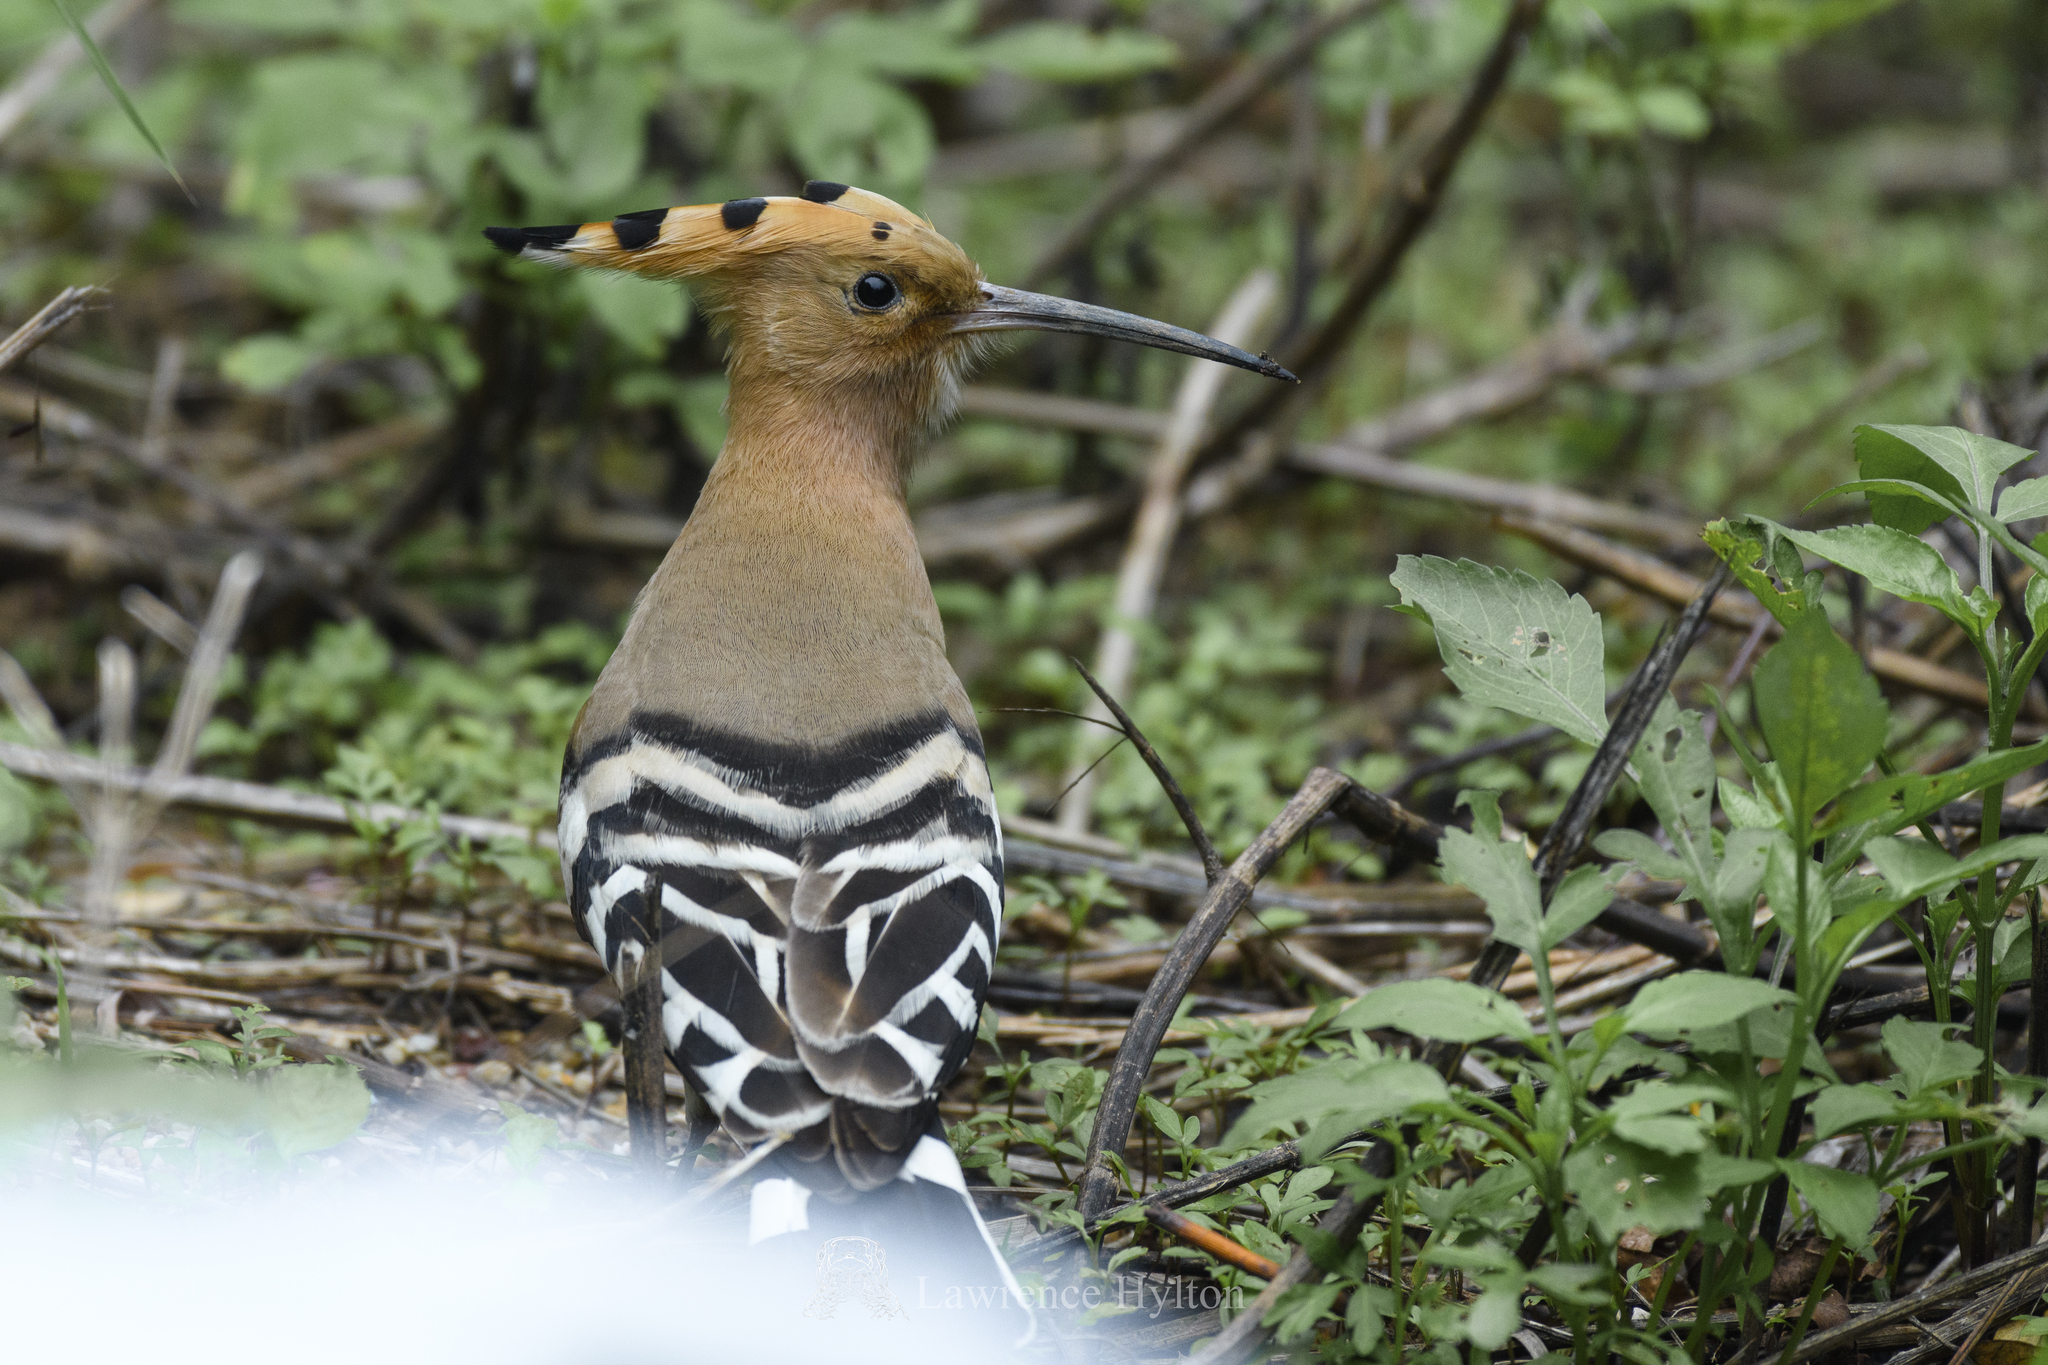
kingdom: Animalia
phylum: Chordata
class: Aves
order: Bucerotiformes
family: Upupidae
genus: Upupa
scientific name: Upupa epops
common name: Eurasian hoopoe
